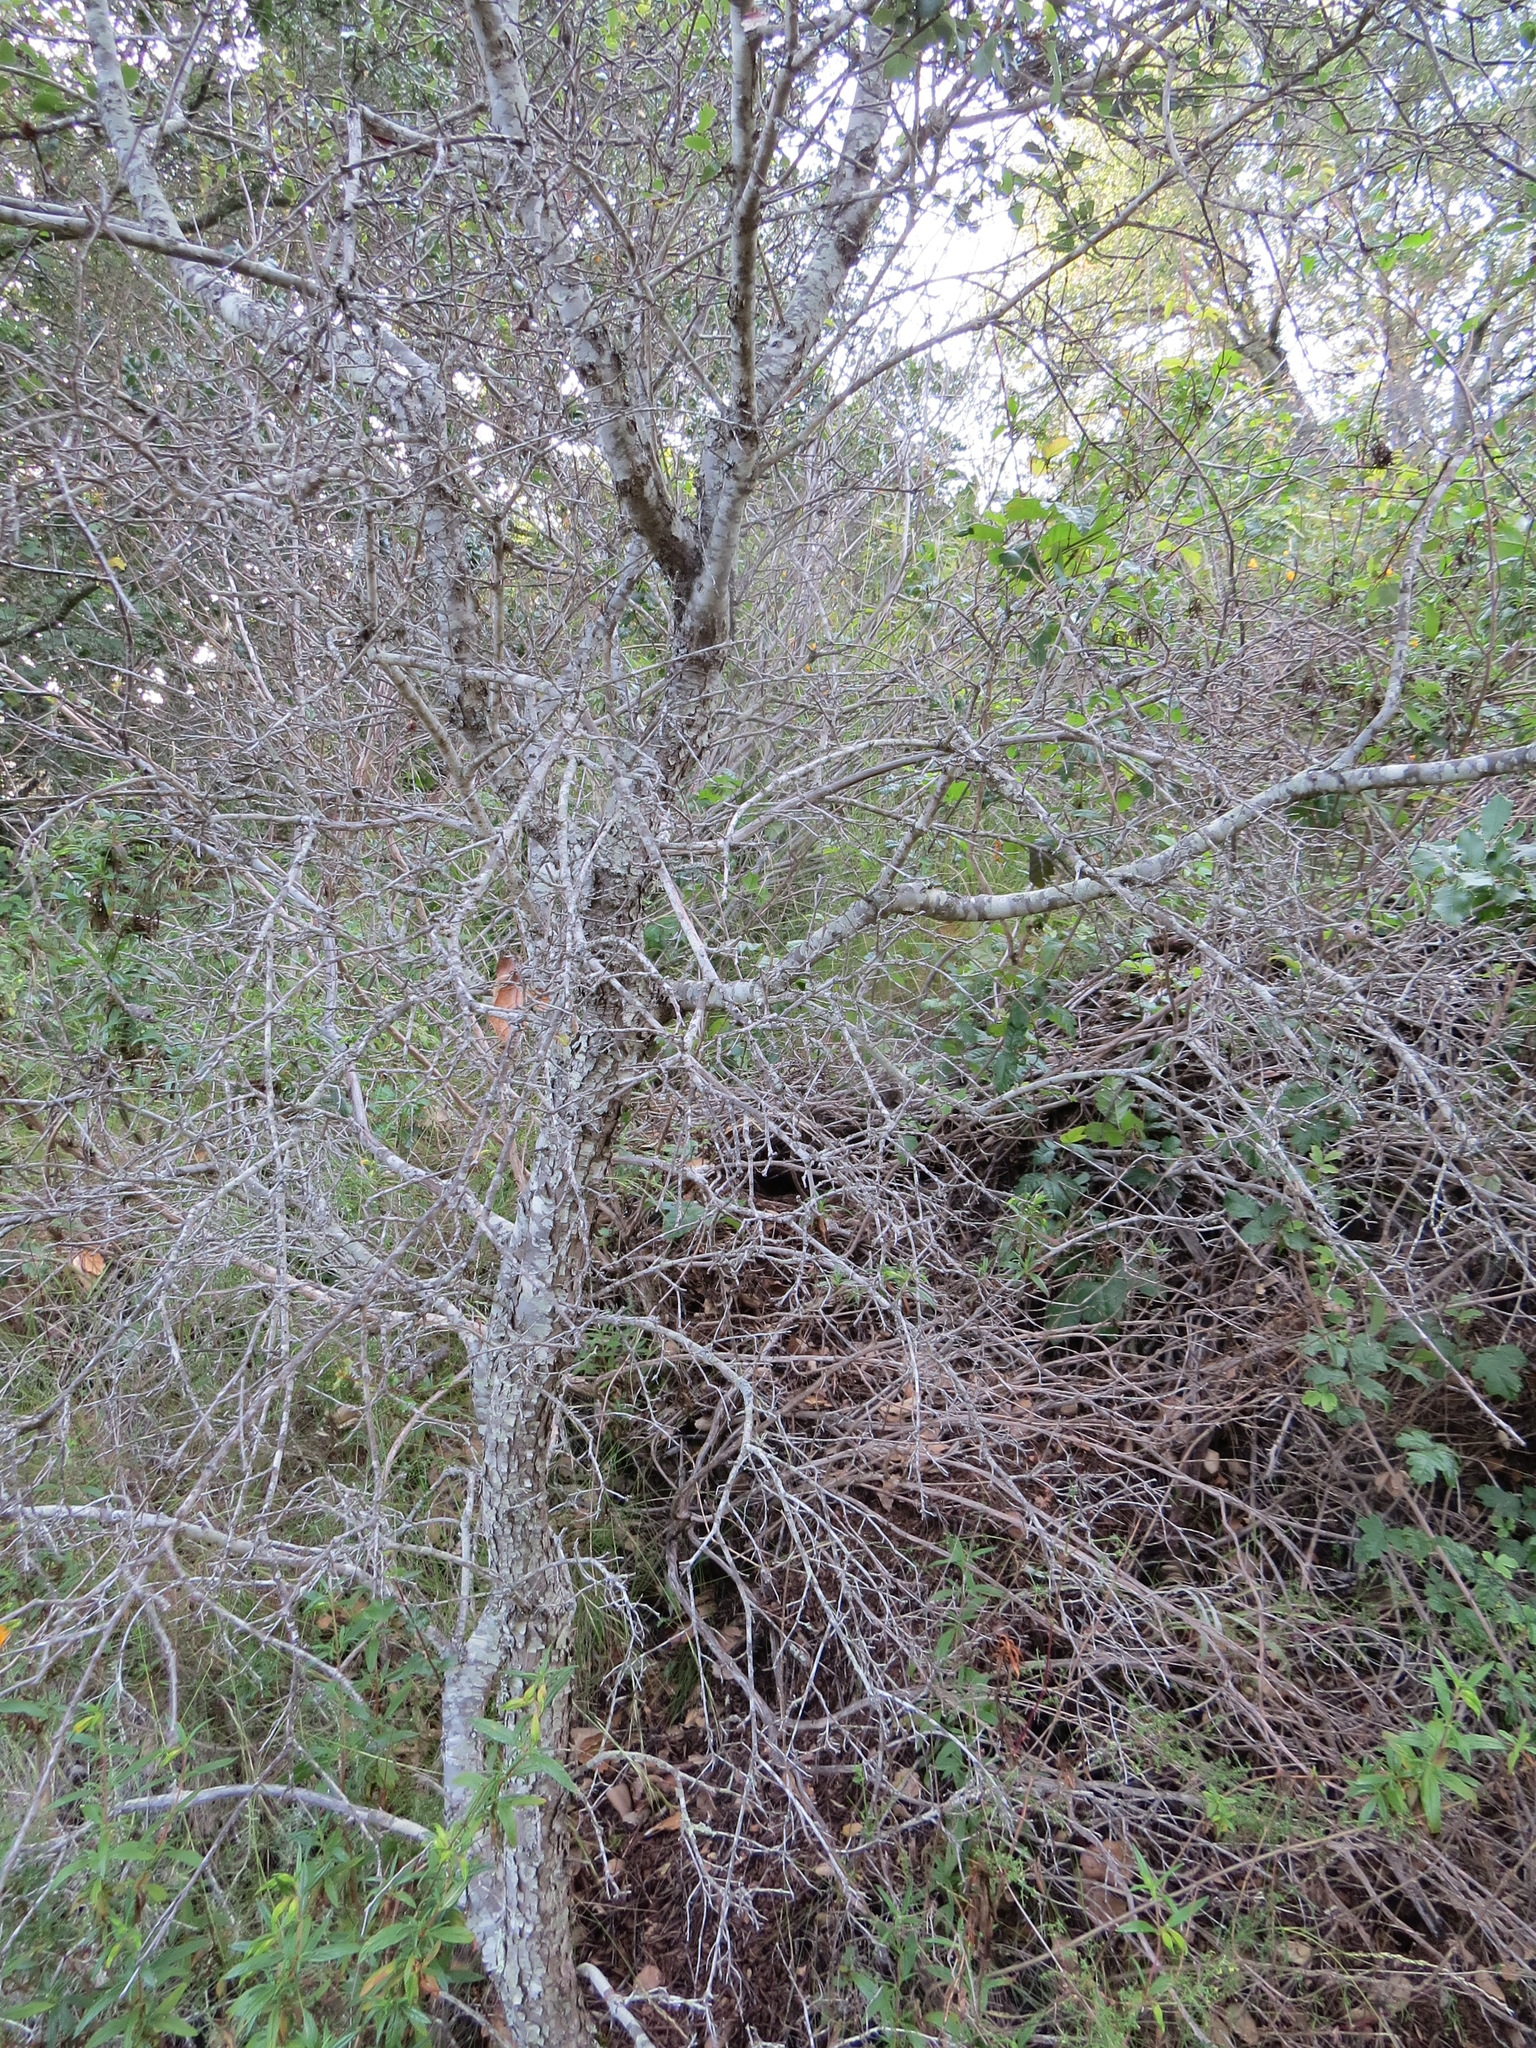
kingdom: Plantae
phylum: Tracheophyta
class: Magnoliopsida
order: Fagales
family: Fagaceae
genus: Quercus
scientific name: Quercus berberidifolia
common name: California scrub oak
